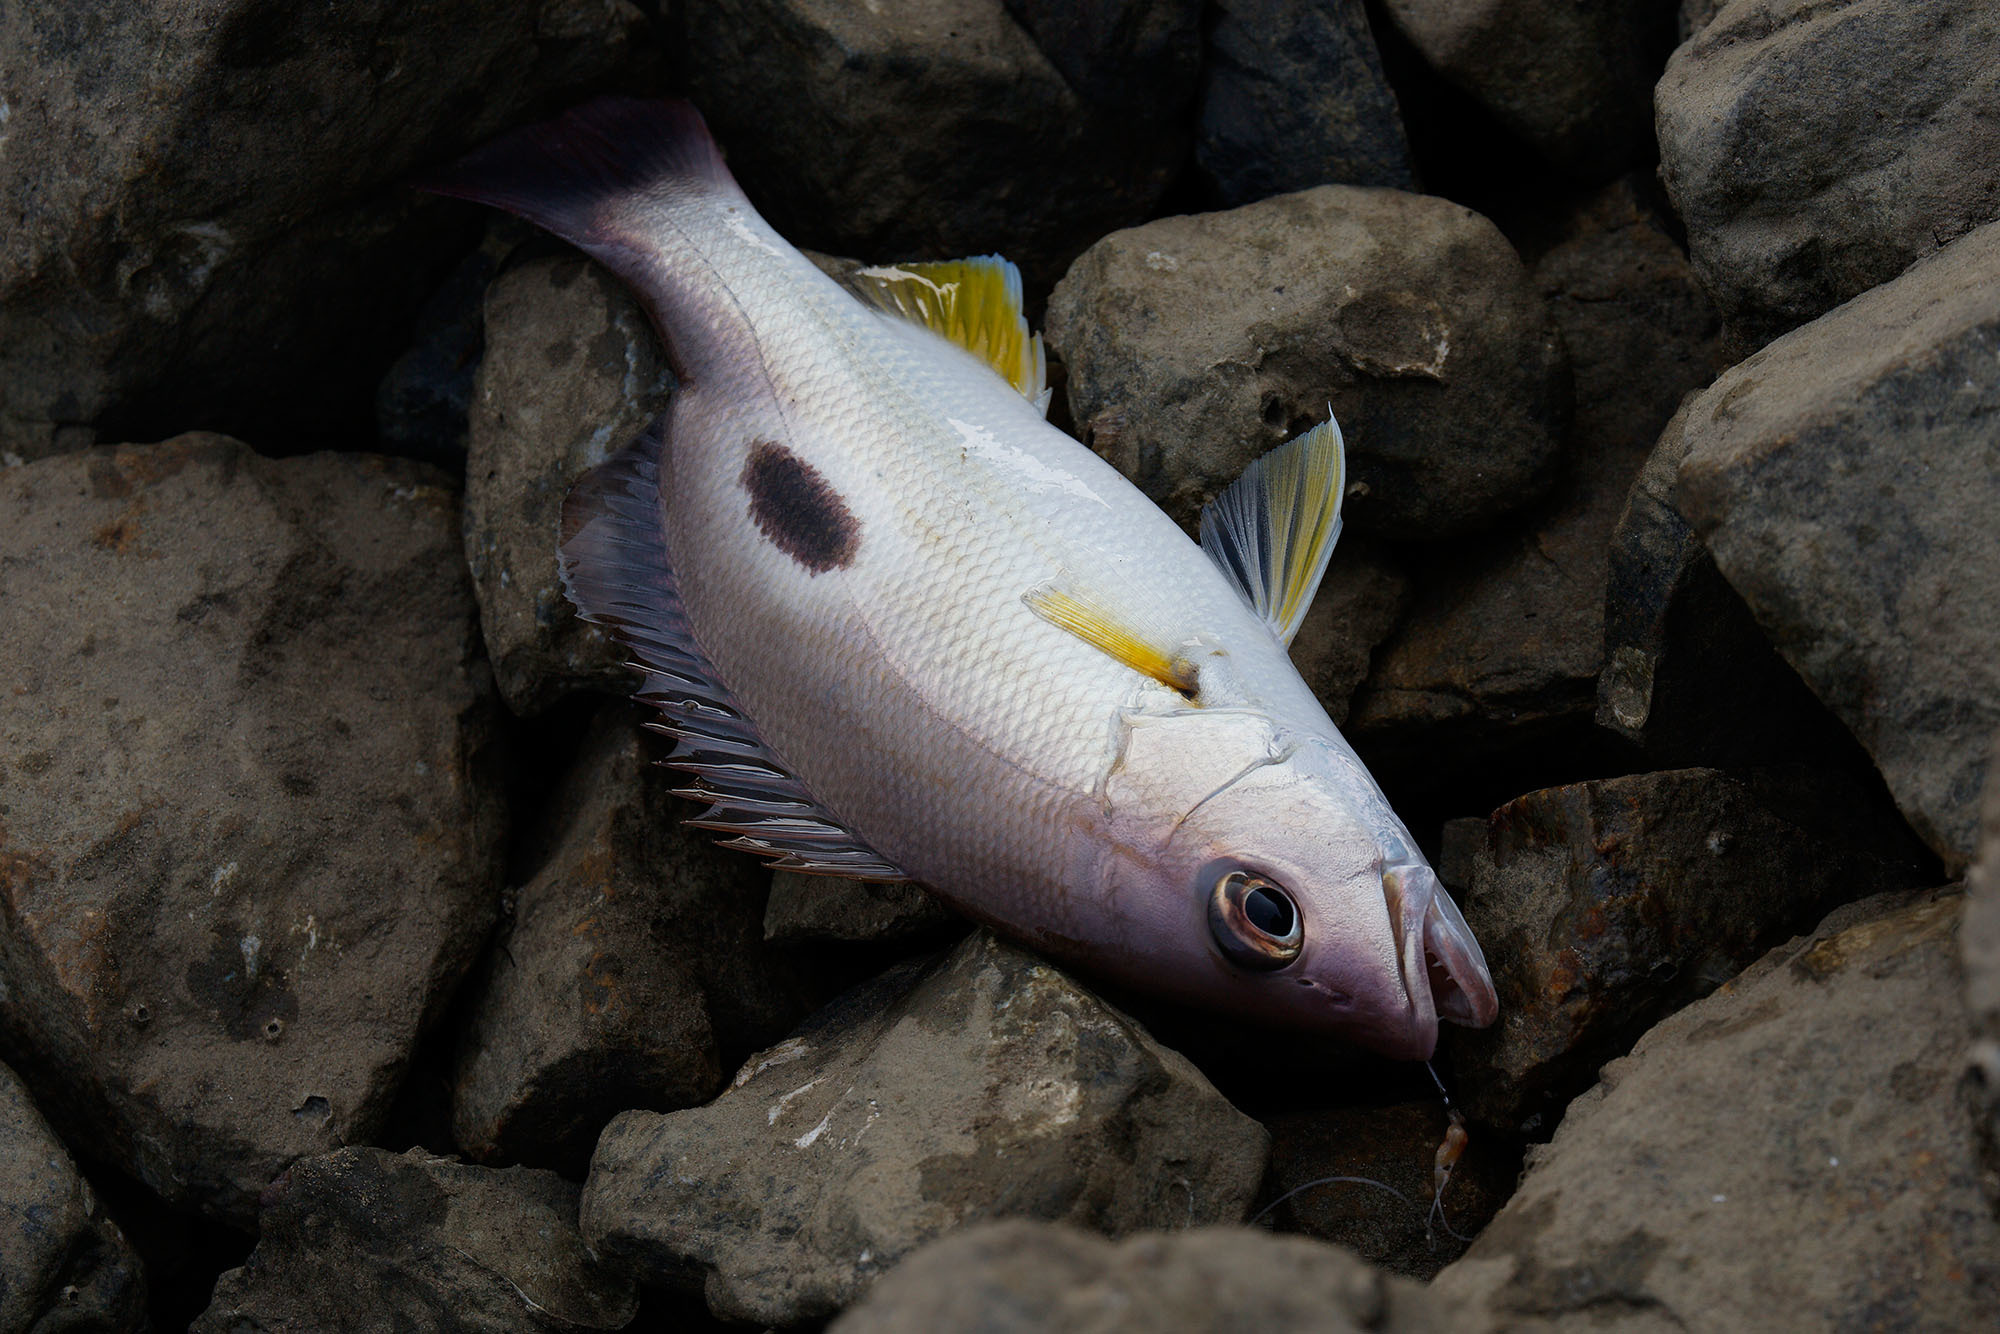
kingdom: Animalia
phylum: Chordata
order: Perciformes
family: Lutjanidae
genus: Lutjanus
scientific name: Lutjanus russellii
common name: Russell's snapper
